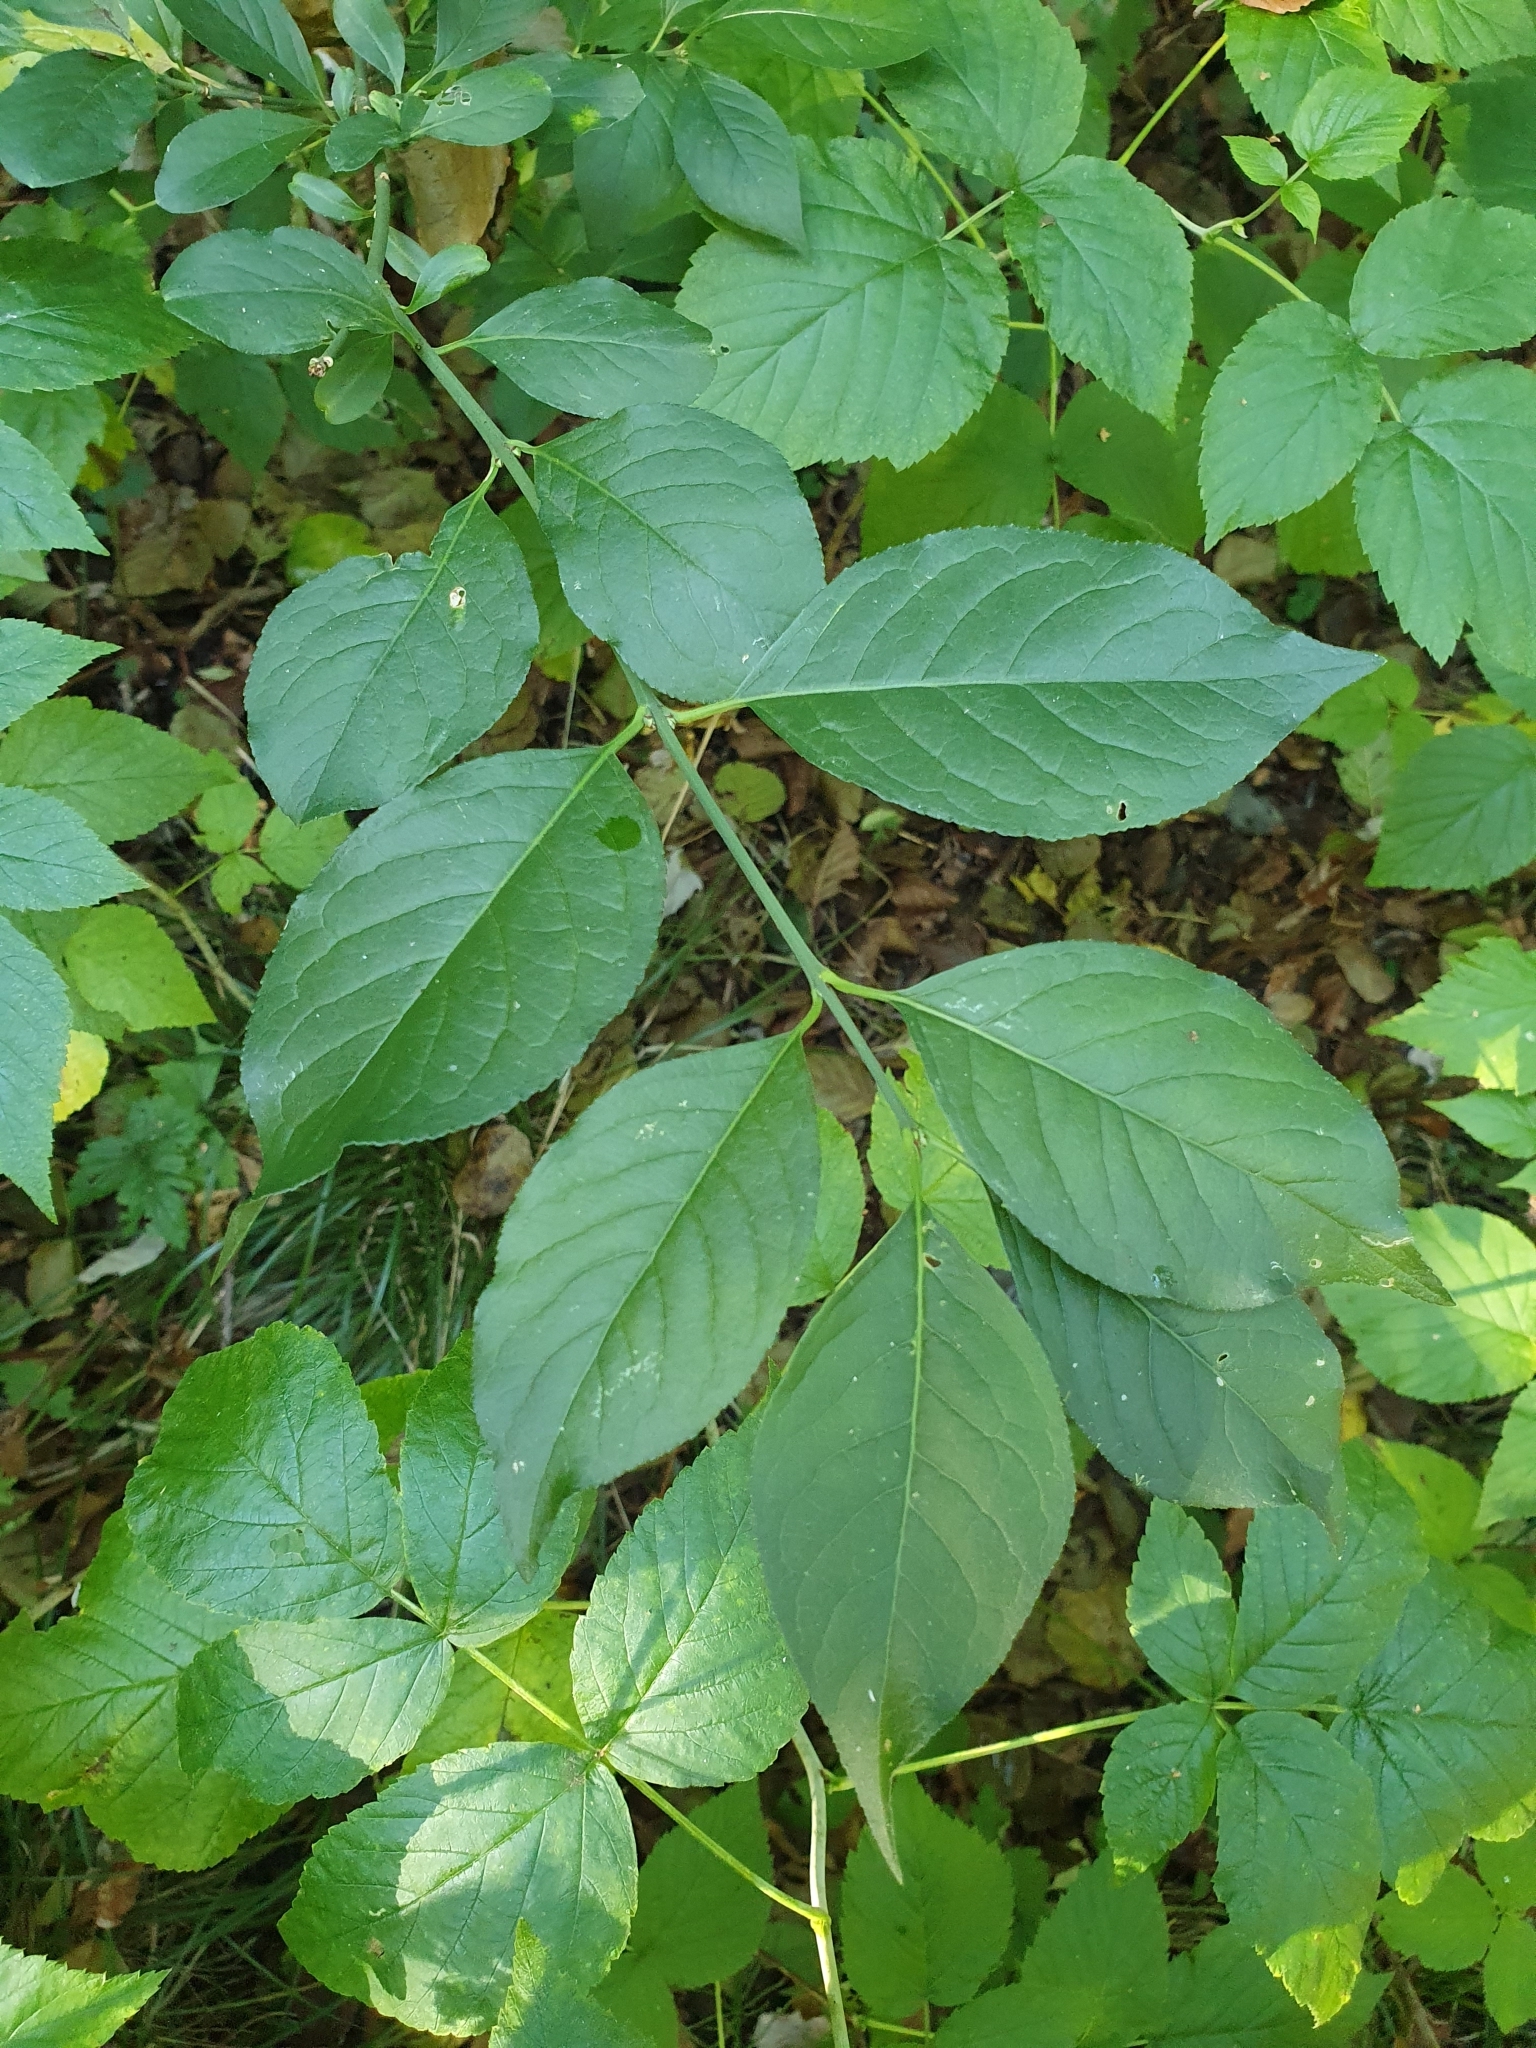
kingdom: Plantae
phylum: Tracheophyta
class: Magnoliopsida
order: Celastrales
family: Celastraceae
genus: Euonymus
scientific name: Euonymus europaeus
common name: Spindle
